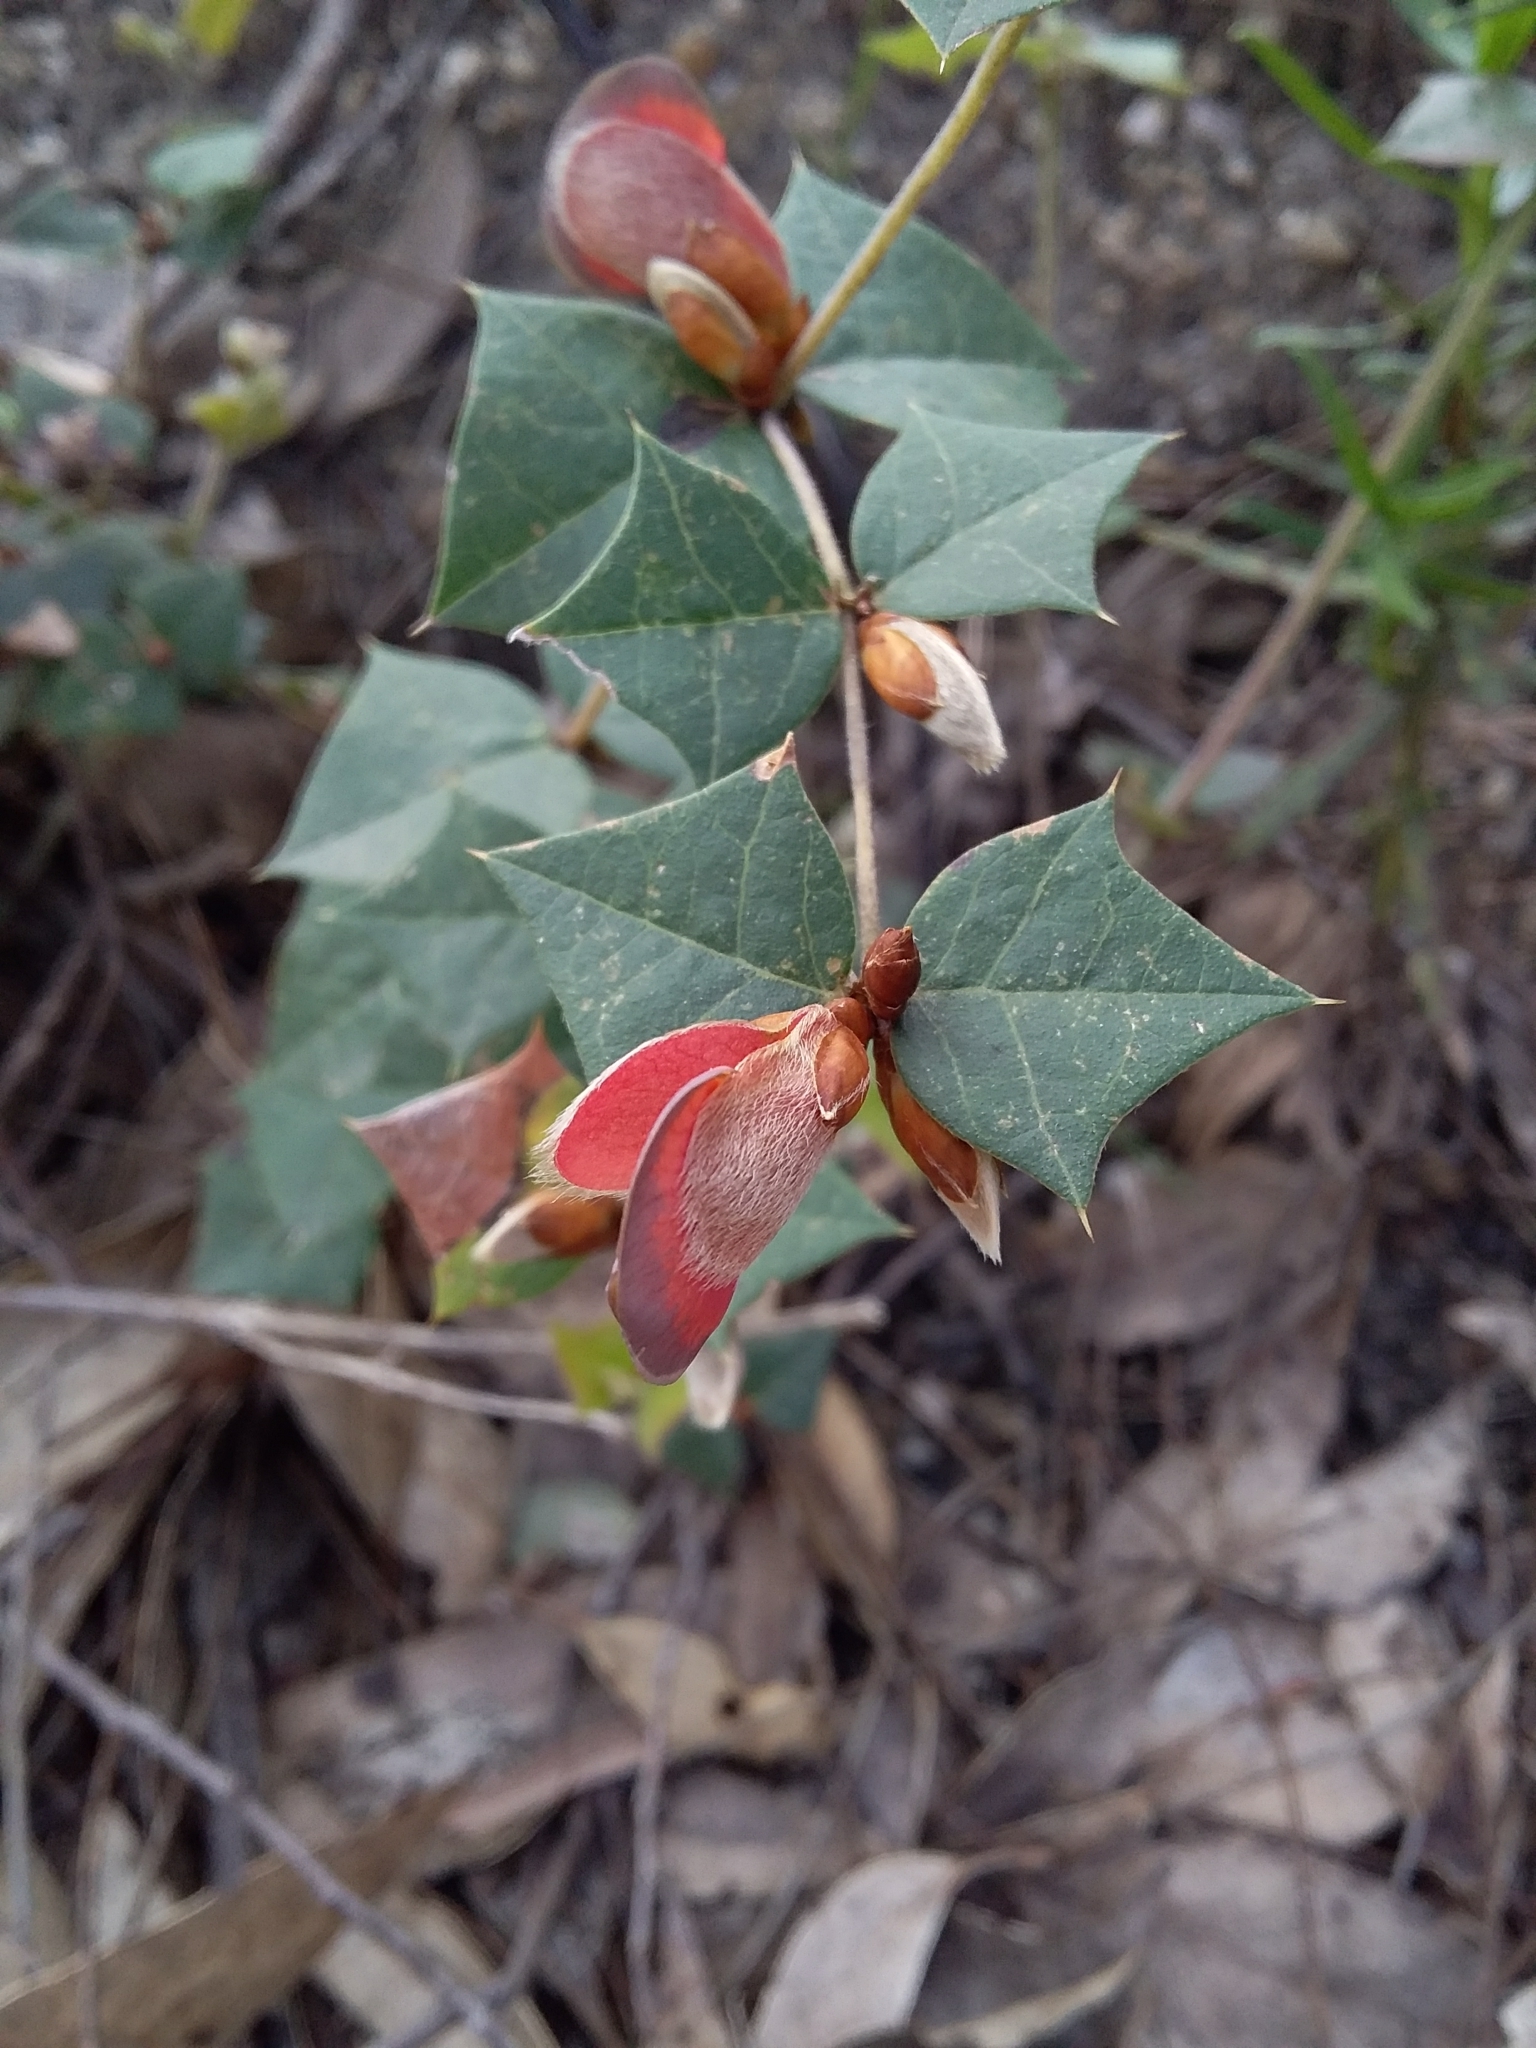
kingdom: Plantae
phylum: Tracheophyta
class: Magnoliopsida
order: Fabales
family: Fabaceae
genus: Platylobium
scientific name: Platylobium obtusangulum
